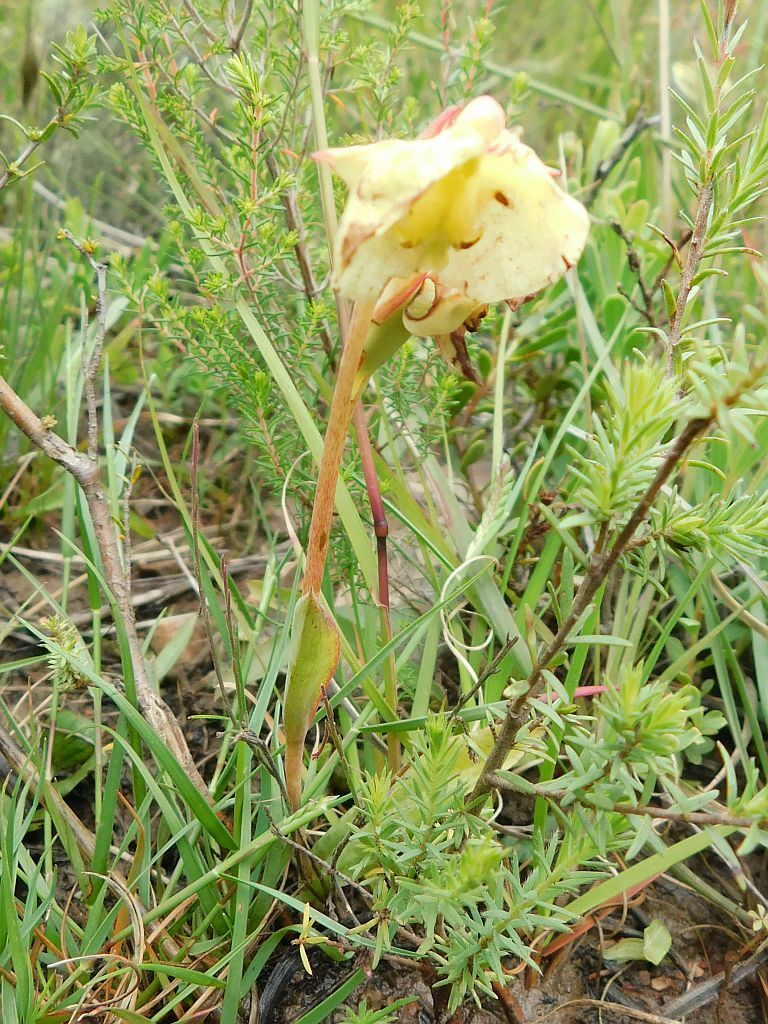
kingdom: Plantae
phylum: Tracheophyta
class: Liliopsida
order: Asparagales
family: Orchidaceae
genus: Pterygodium
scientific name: Pterygodium catholicum
